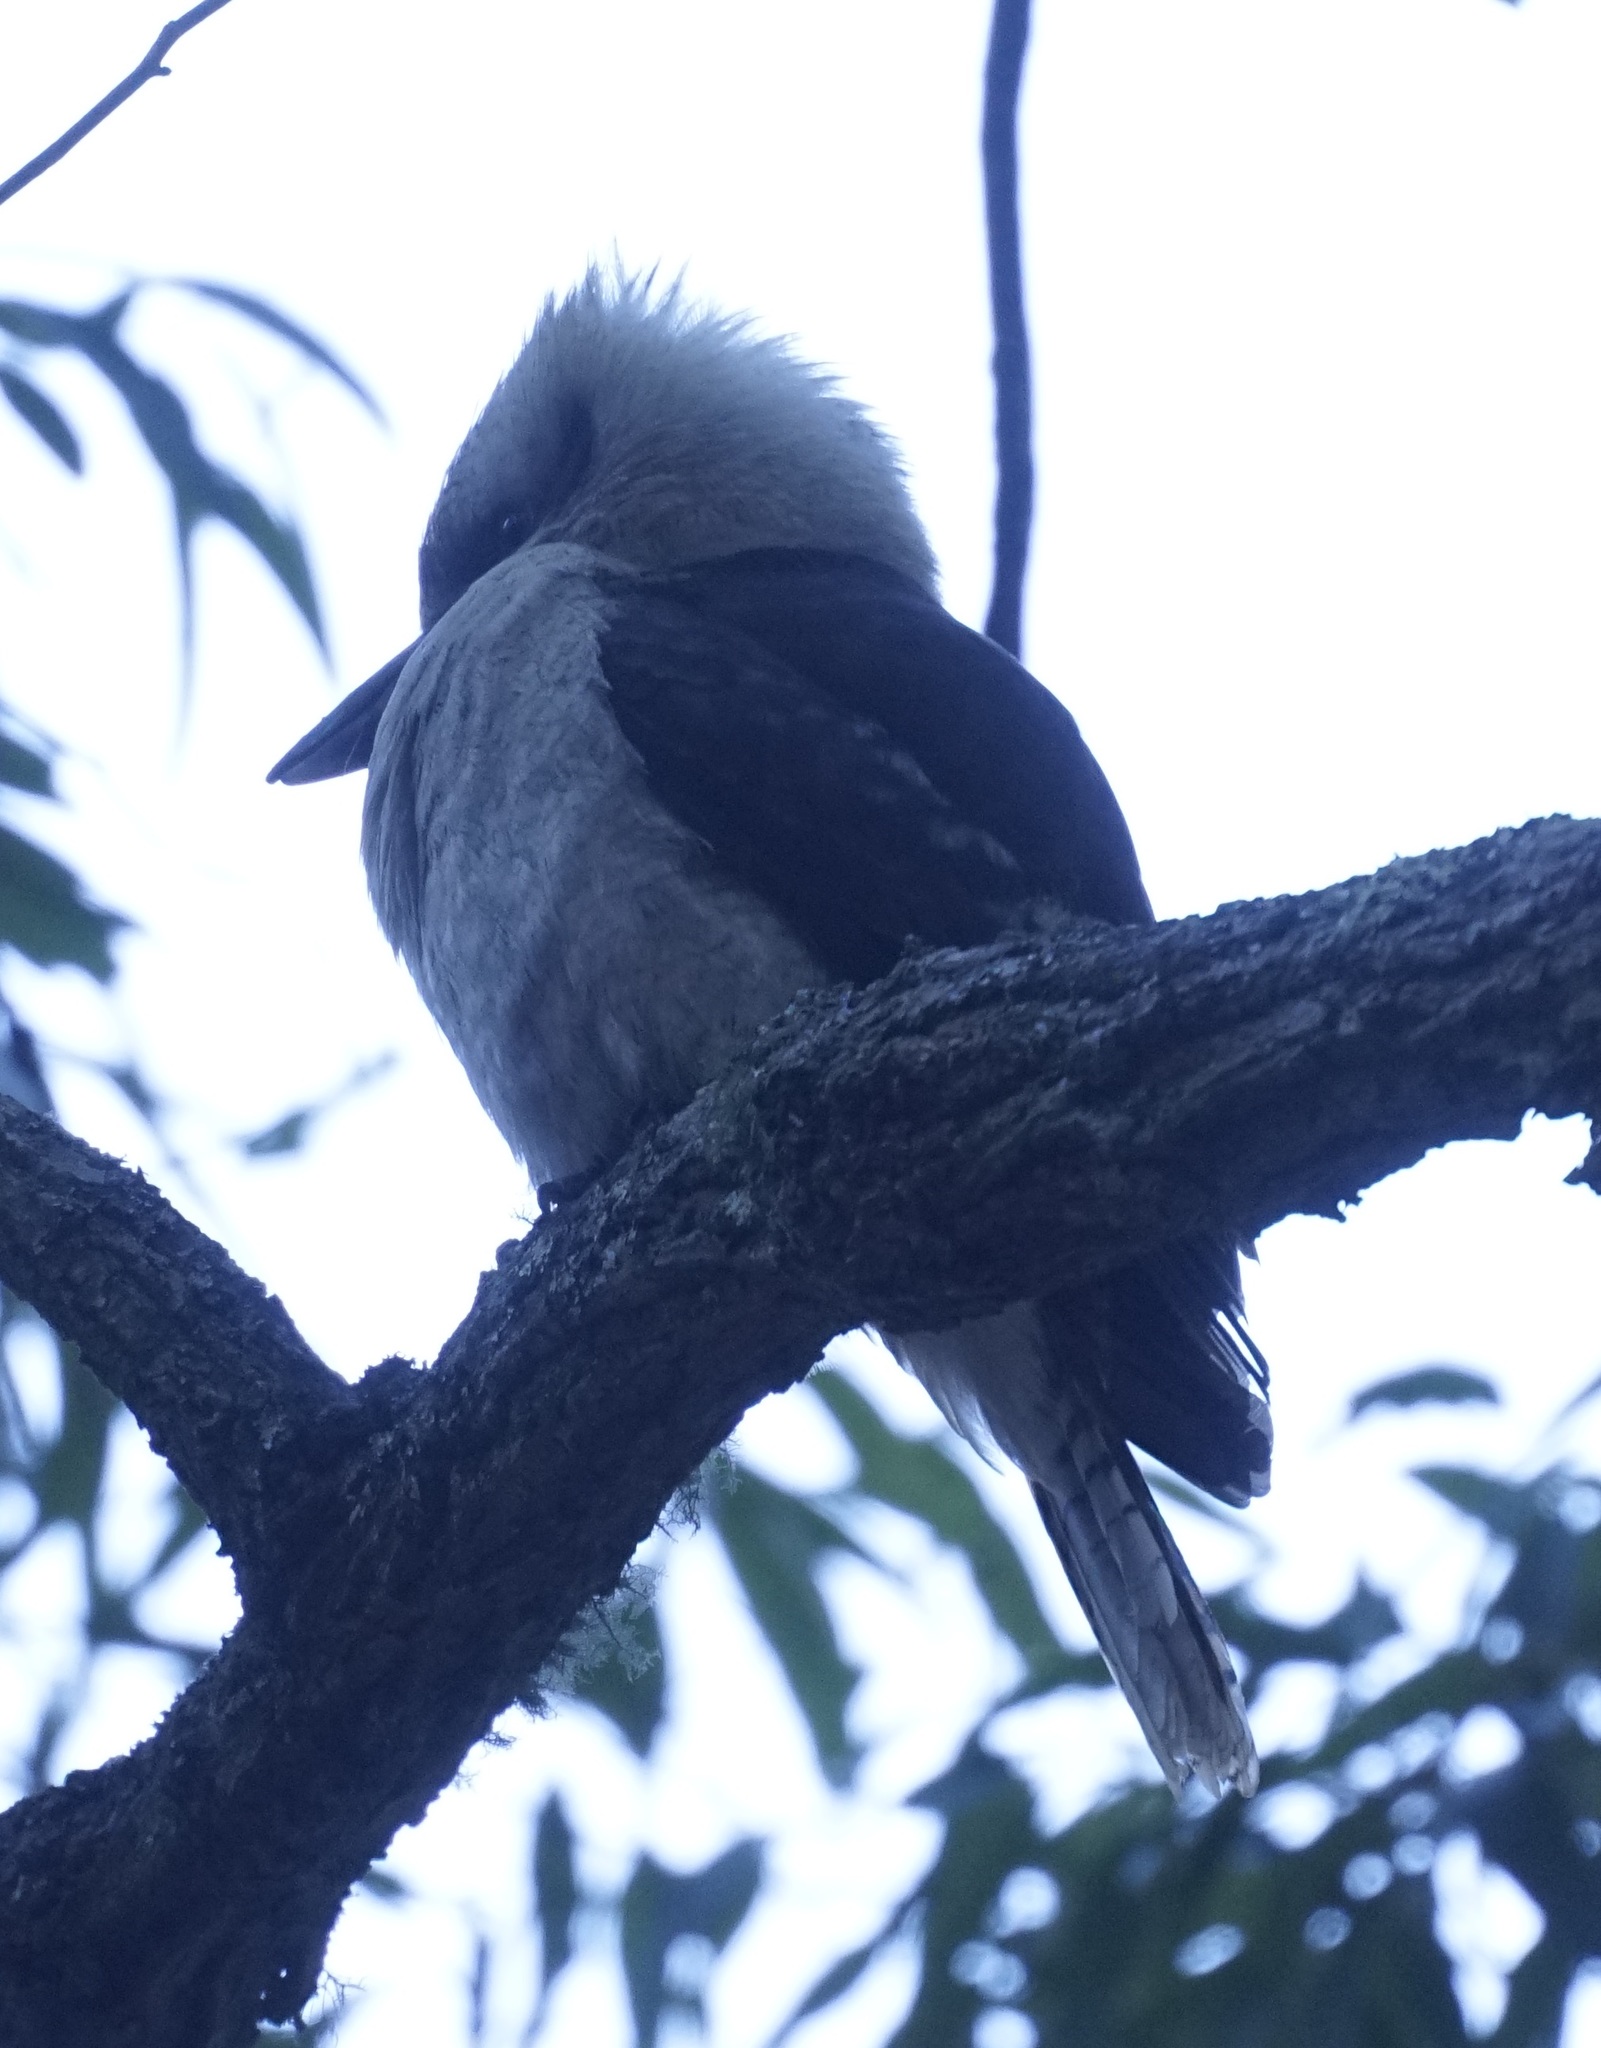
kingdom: Animalia
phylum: Chordata
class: Aves
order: Coraciiformes
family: Alcedinidae
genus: Dacelo
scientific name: Dacelo novaeguineae
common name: Laughing kookaburra
